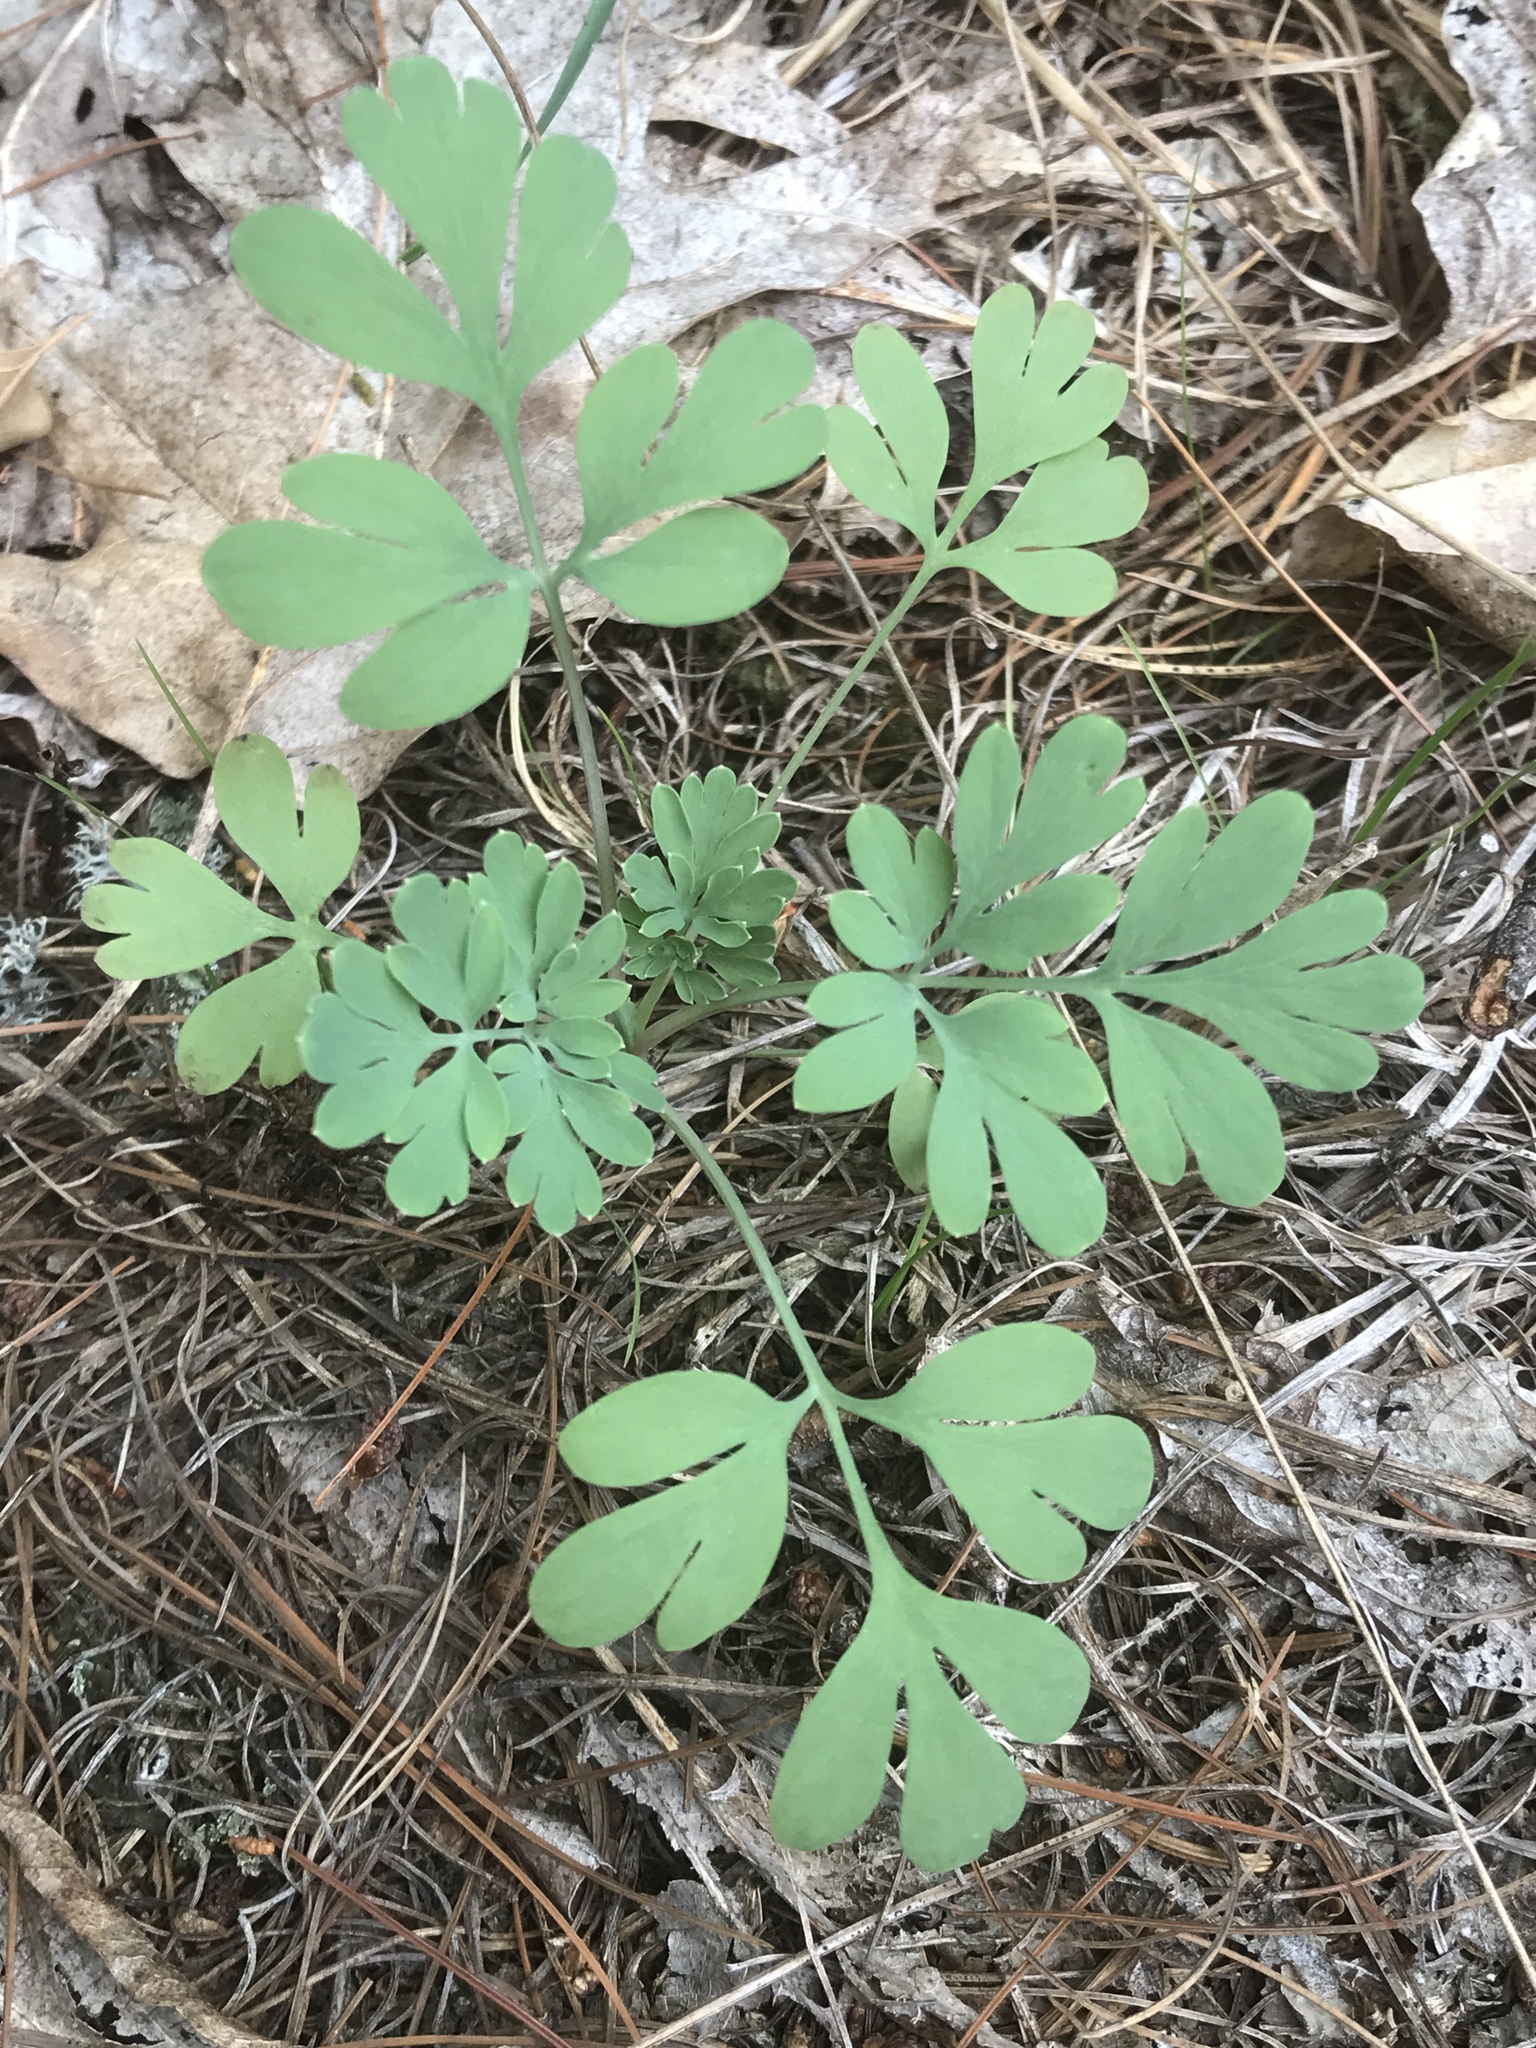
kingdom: Plantae
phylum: Tracheophyta
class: Magnoliopsida
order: Ranunculales
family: Papaveraceae
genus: Capnoides
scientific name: Capnoides sempervirens
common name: Rock harlequin
